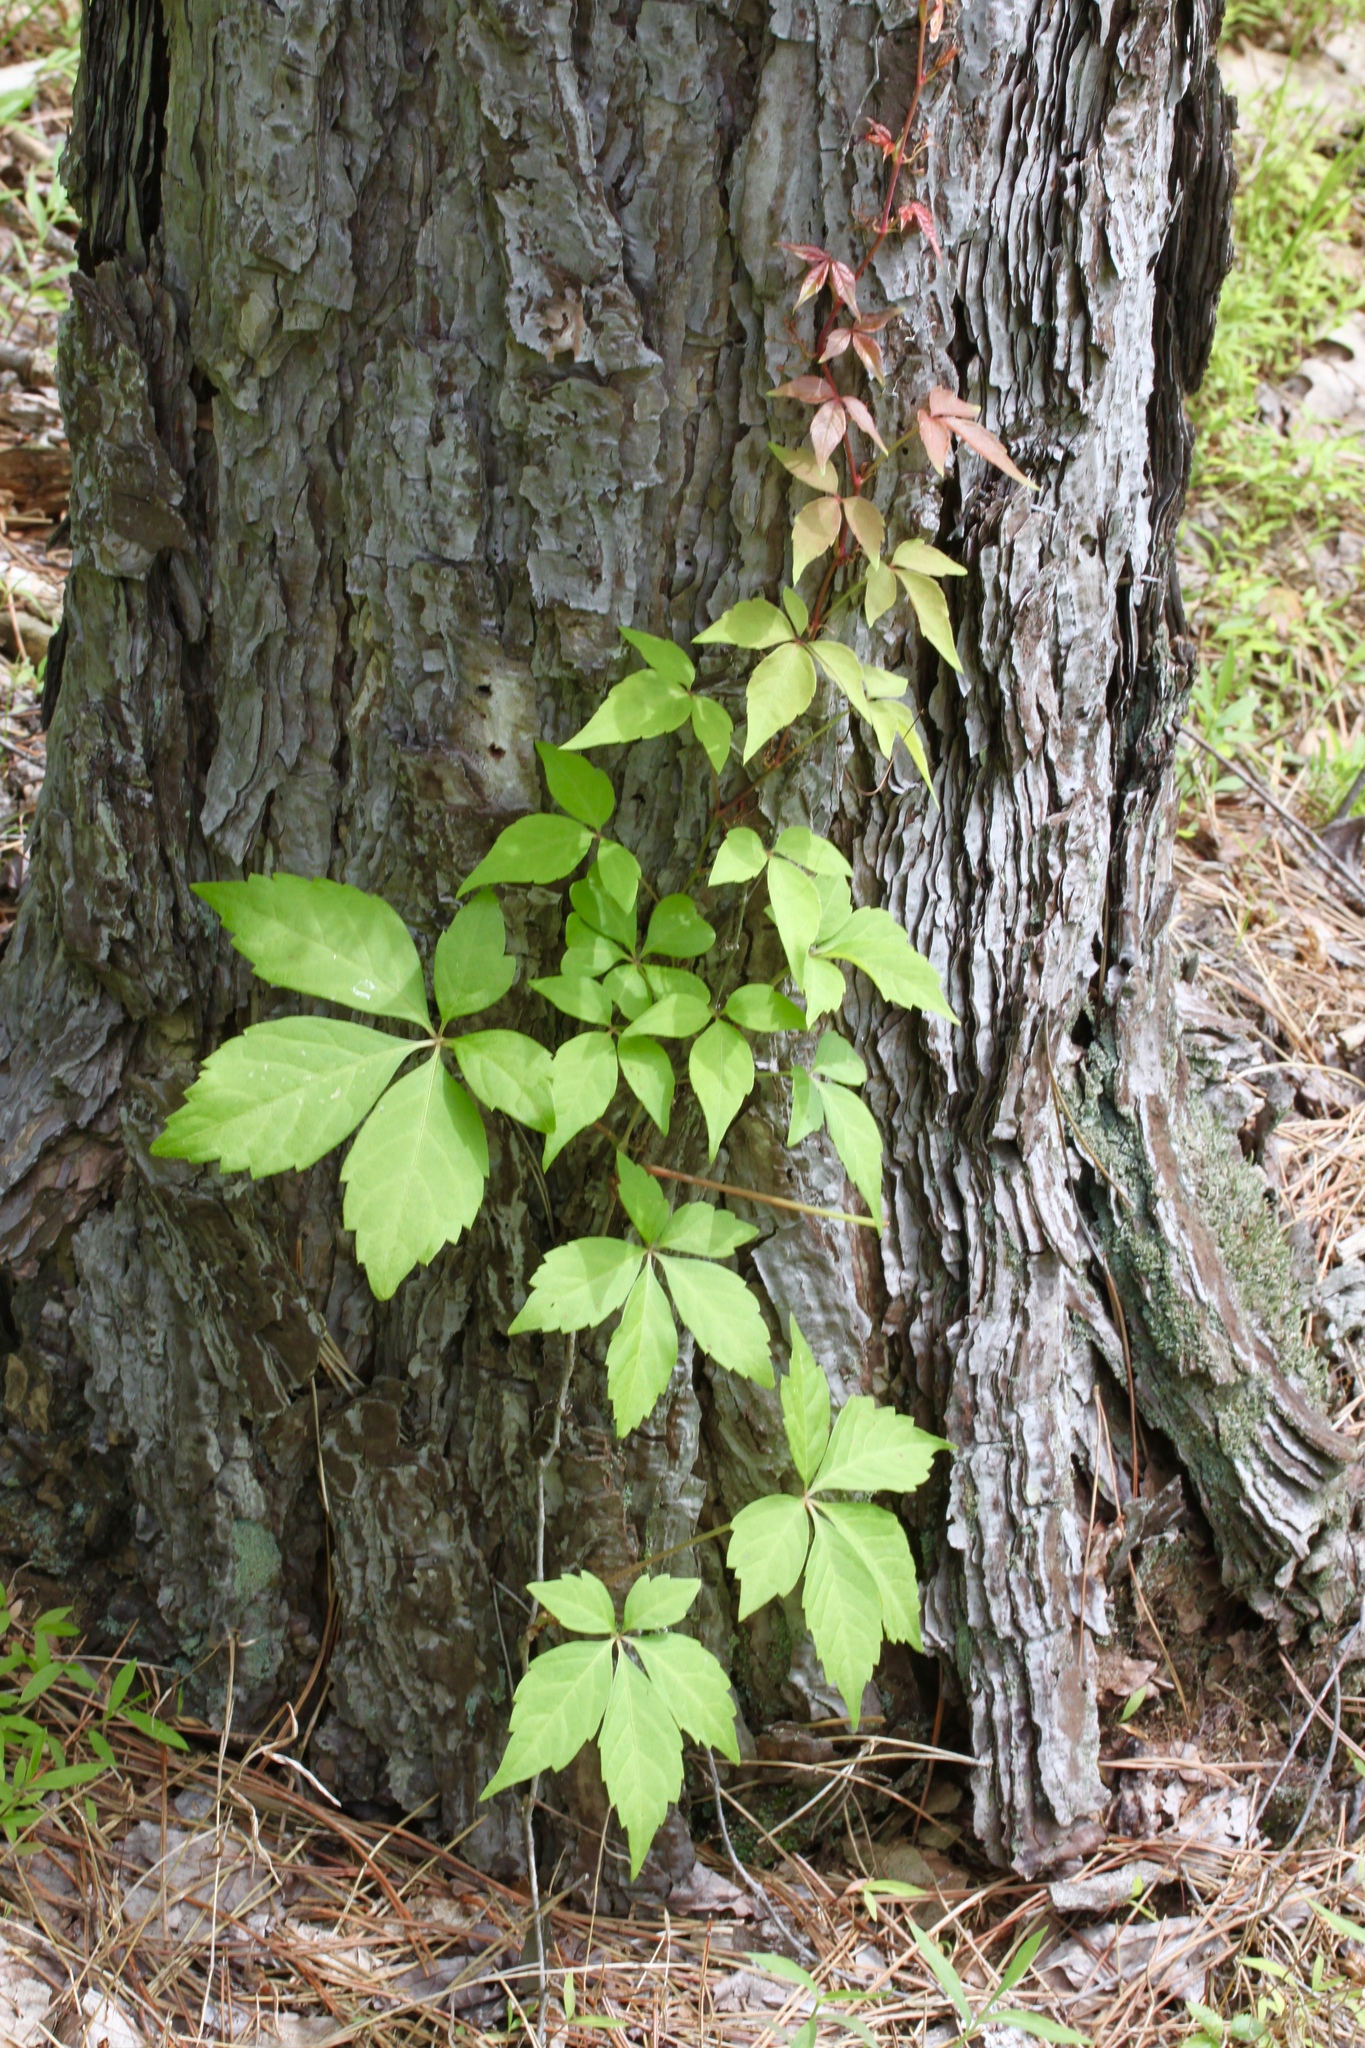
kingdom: Plantae
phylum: Tracheophyta
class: Magnoliopsida
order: Vitales
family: Vitaceae
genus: Parthenocissus
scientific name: Parthenocissus quinquefolia
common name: Virginia-creeper
